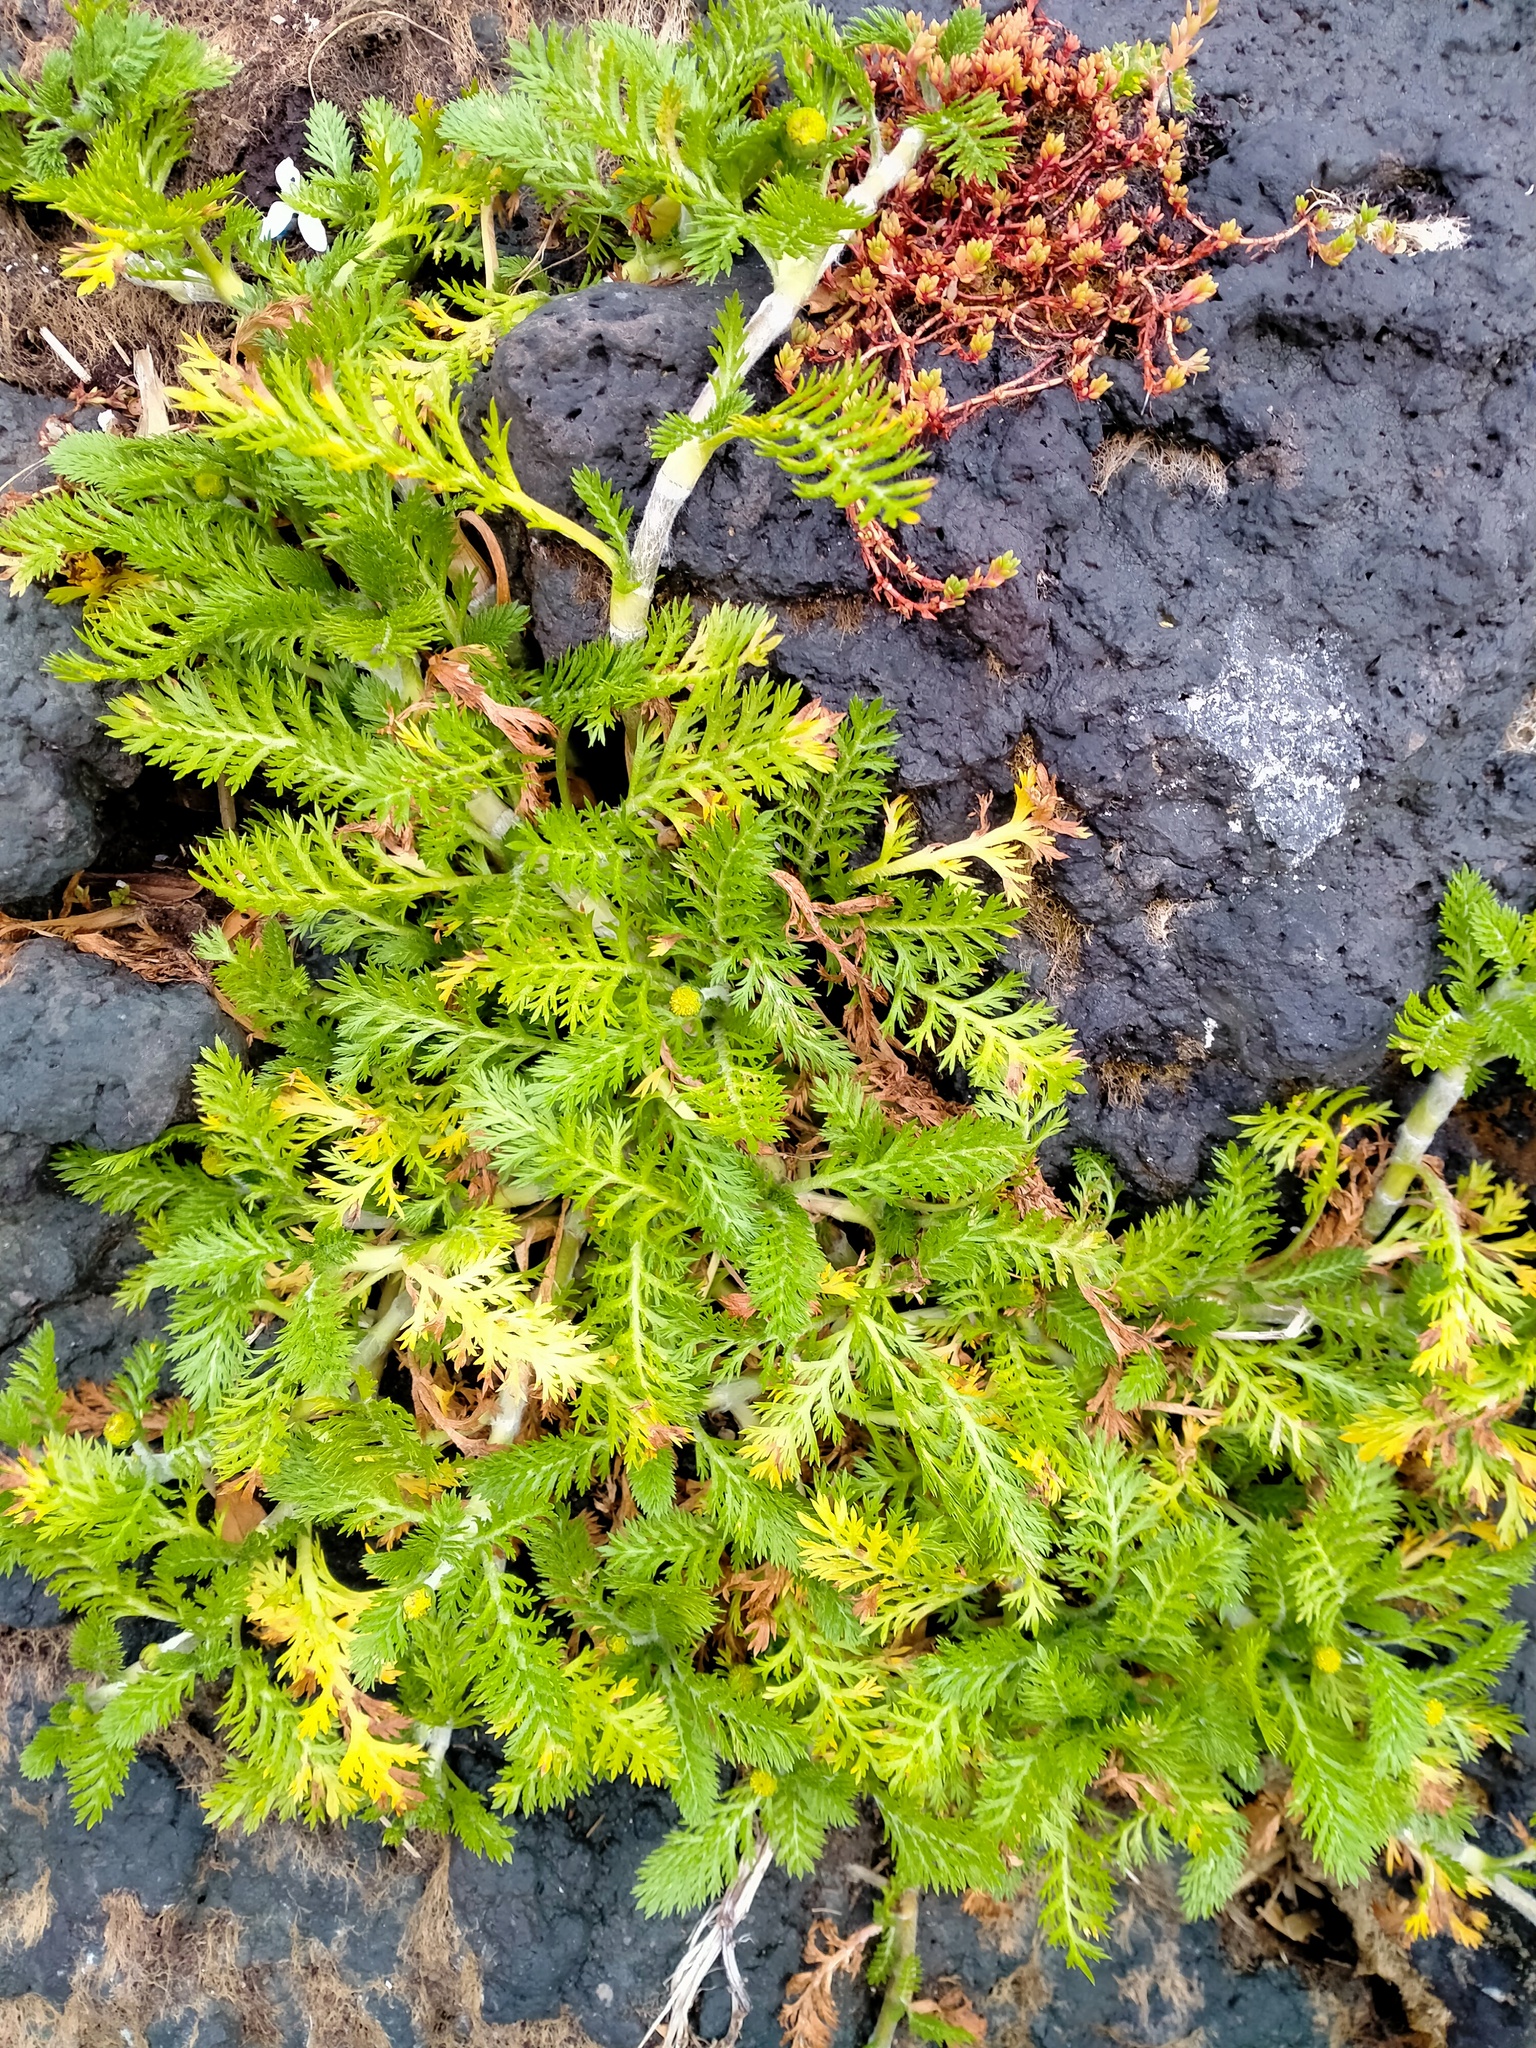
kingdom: Plantae
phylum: Tracheophyta
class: Magnoliopsida
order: Asterales
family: Asteraceae
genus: Leptinella
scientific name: Leptinella plumosa
